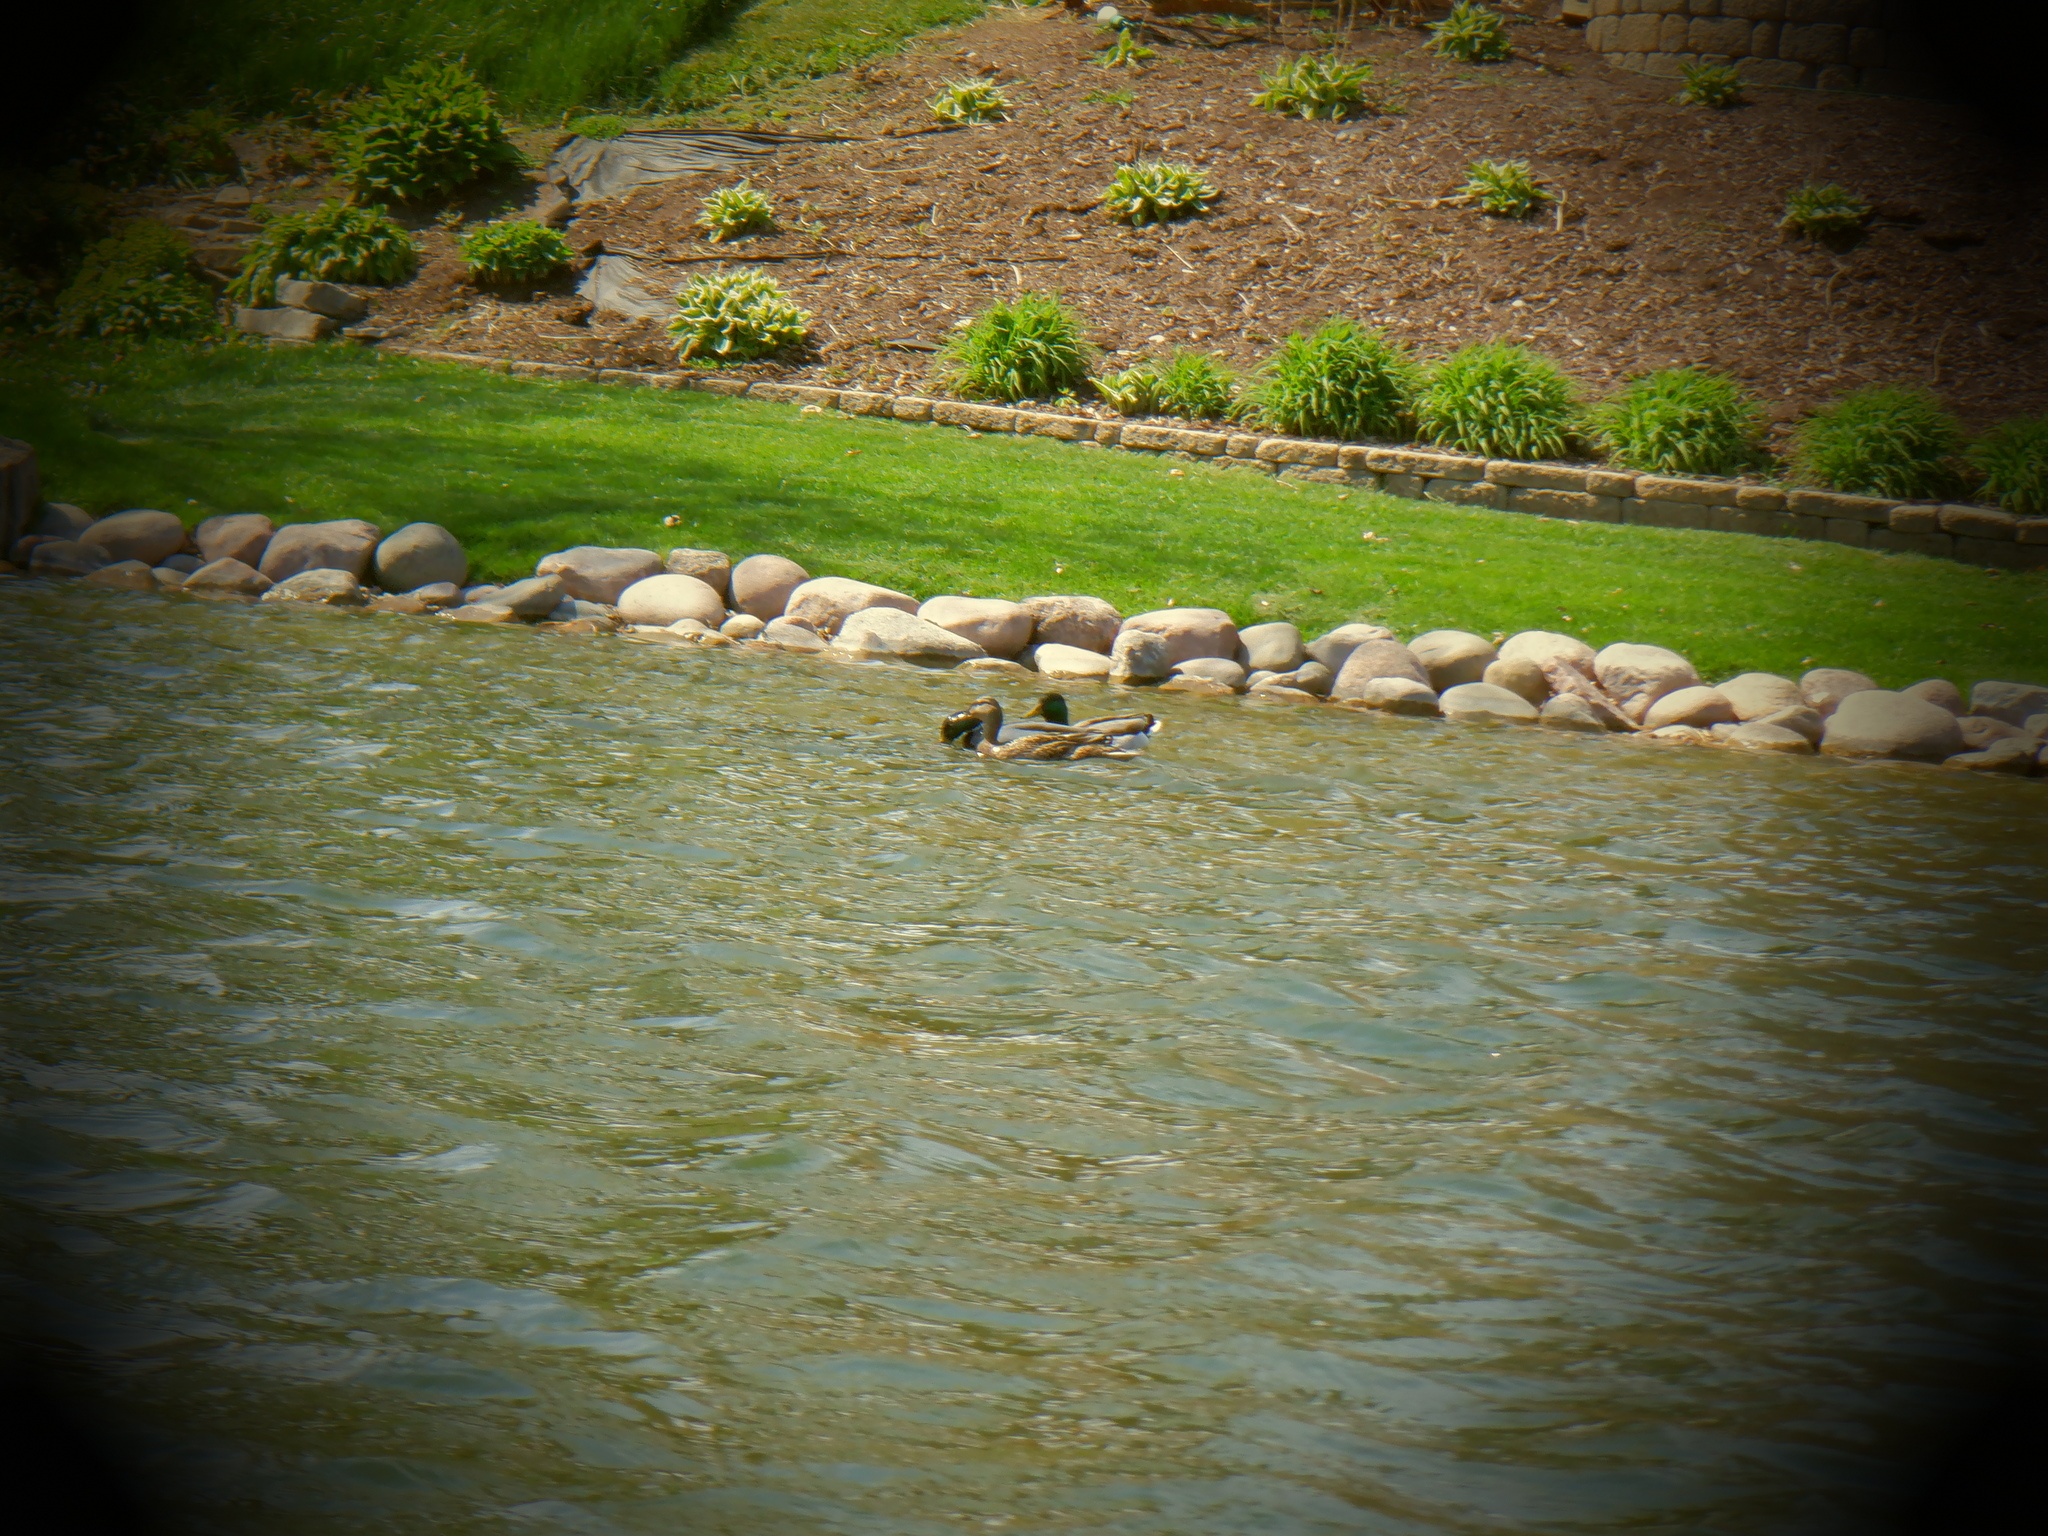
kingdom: Animalia
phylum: Chordata
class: Aves
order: Anseriformes
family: Anatidae
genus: Anas
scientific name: Anas platyrhynchos
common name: Mallard
